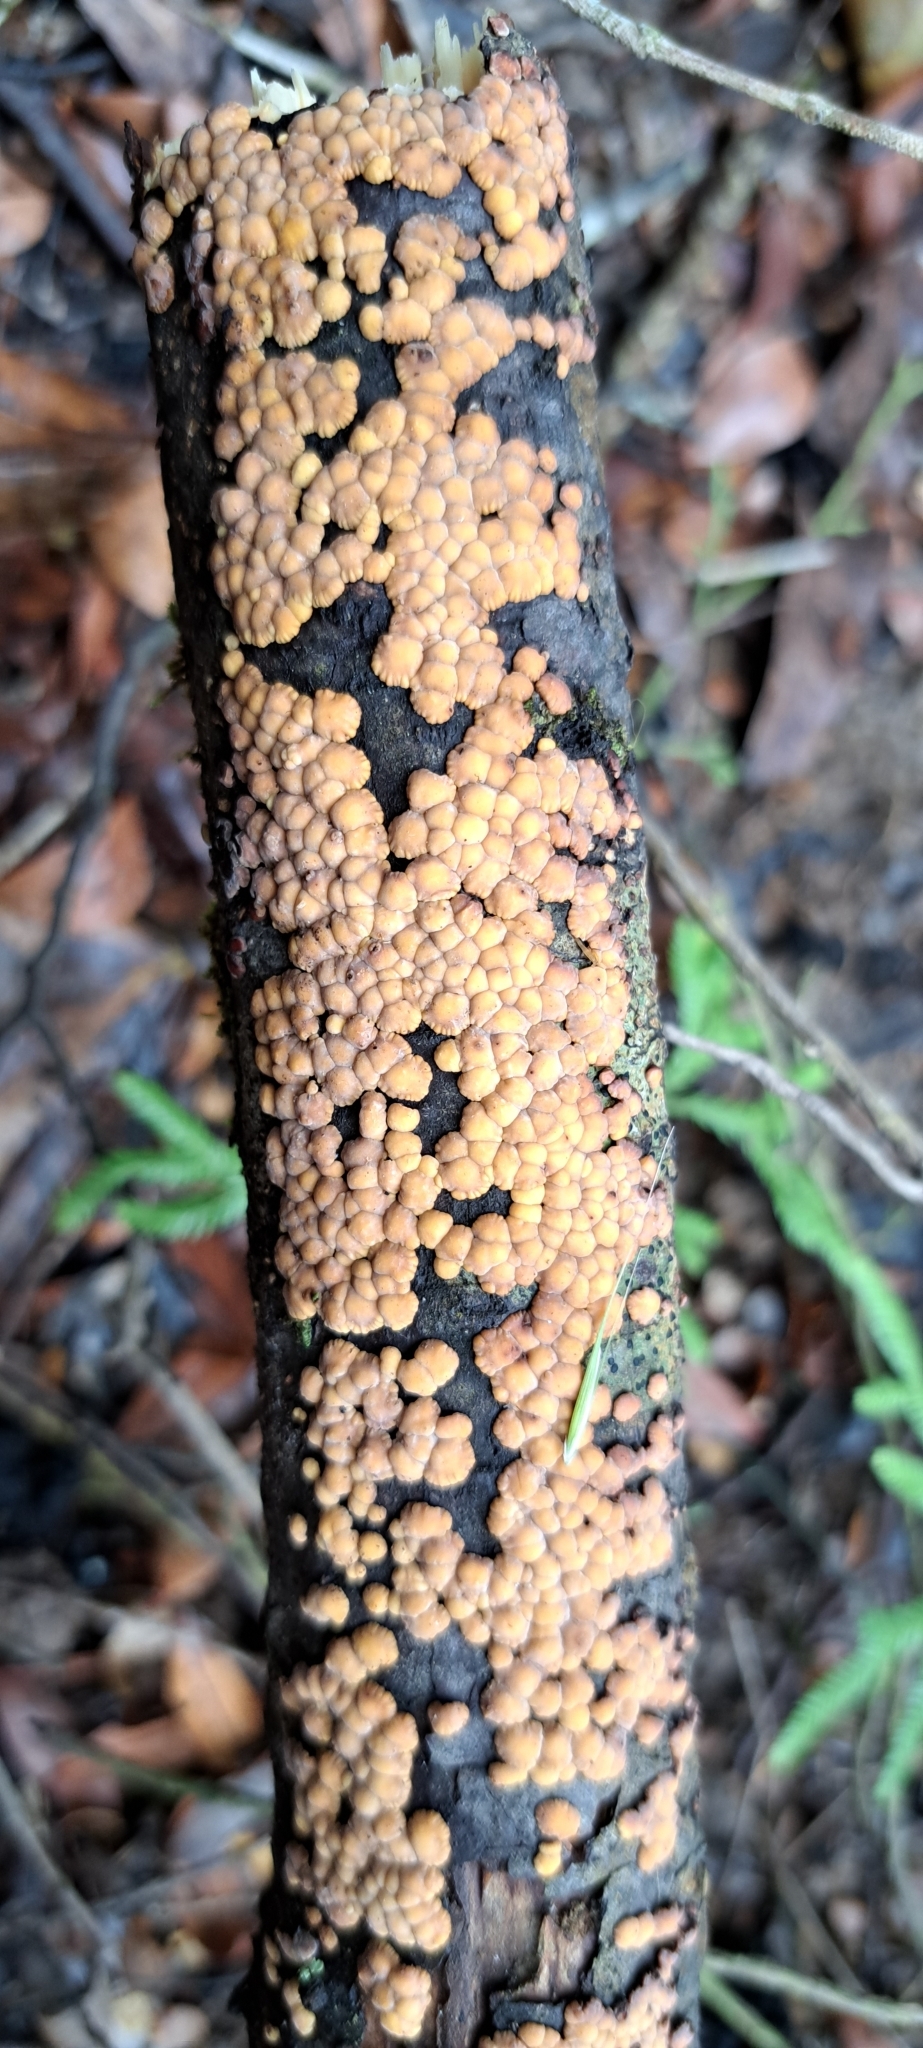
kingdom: Fungi
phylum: Basidiomycota
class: Agaricomycetes
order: Russulales
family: Stereaceae
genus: Aleurodiscus
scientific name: Aleurodiscus berggrenii
